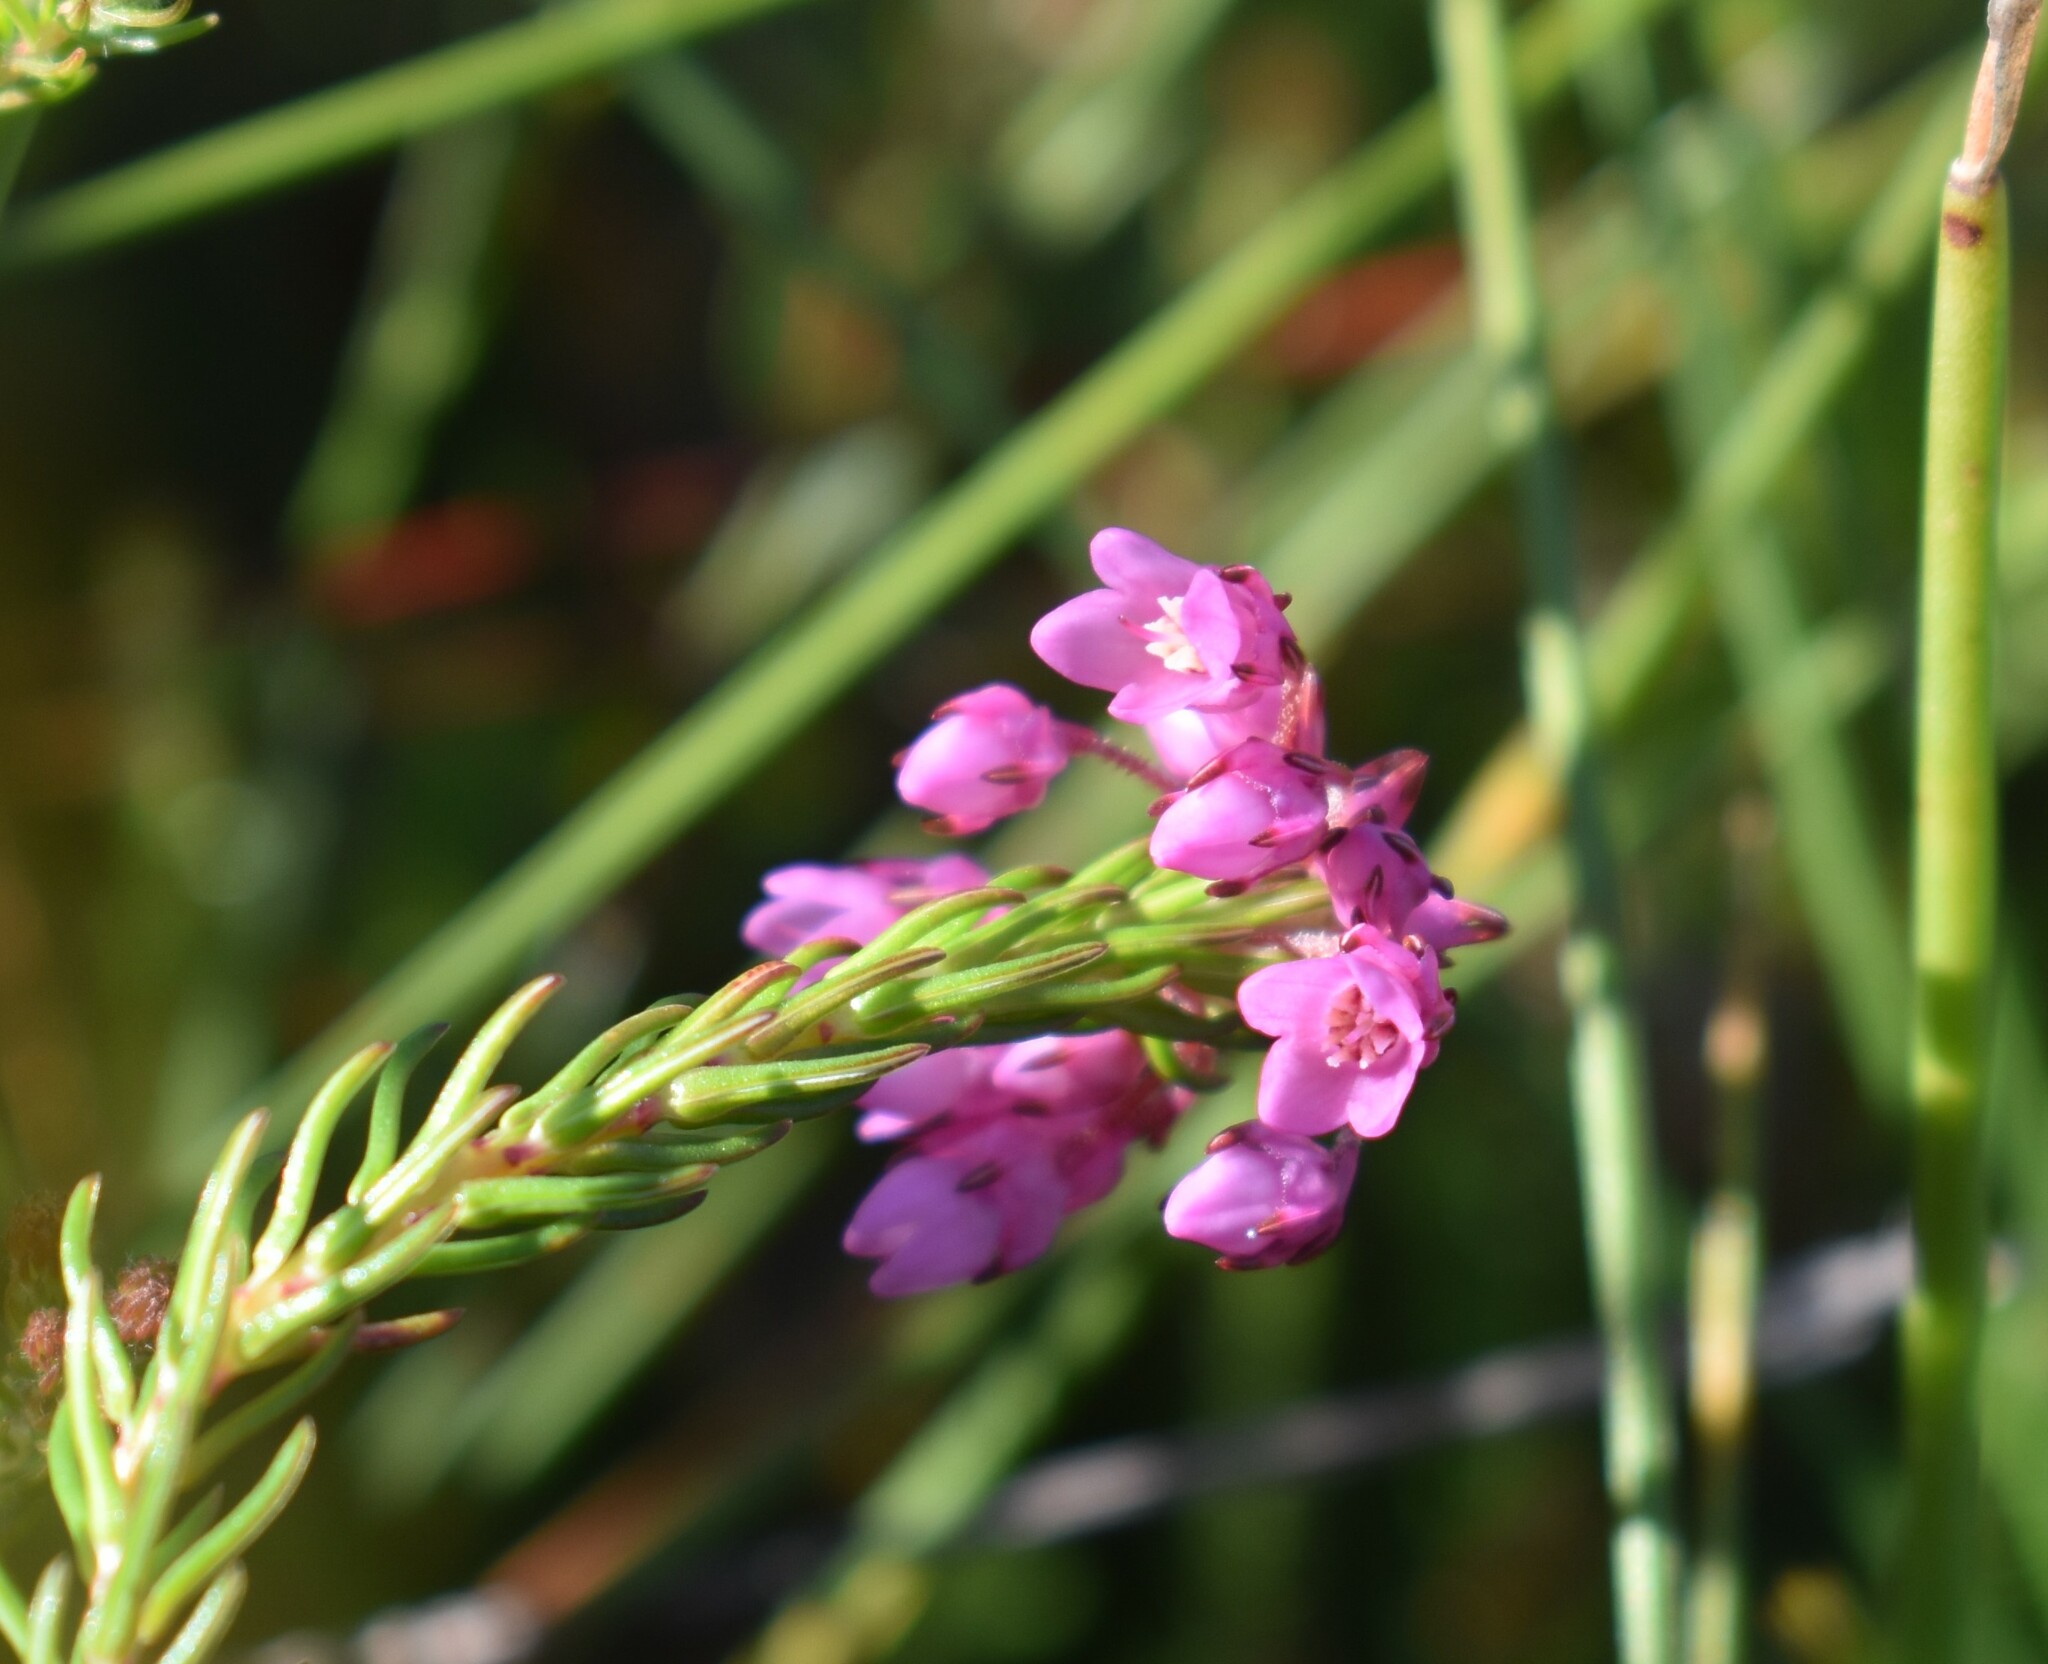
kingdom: Plantae
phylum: Tracheophyta
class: Magnoliopsida
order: Ericales
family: Ericaceae
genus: Erica
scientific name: Erica cubica
